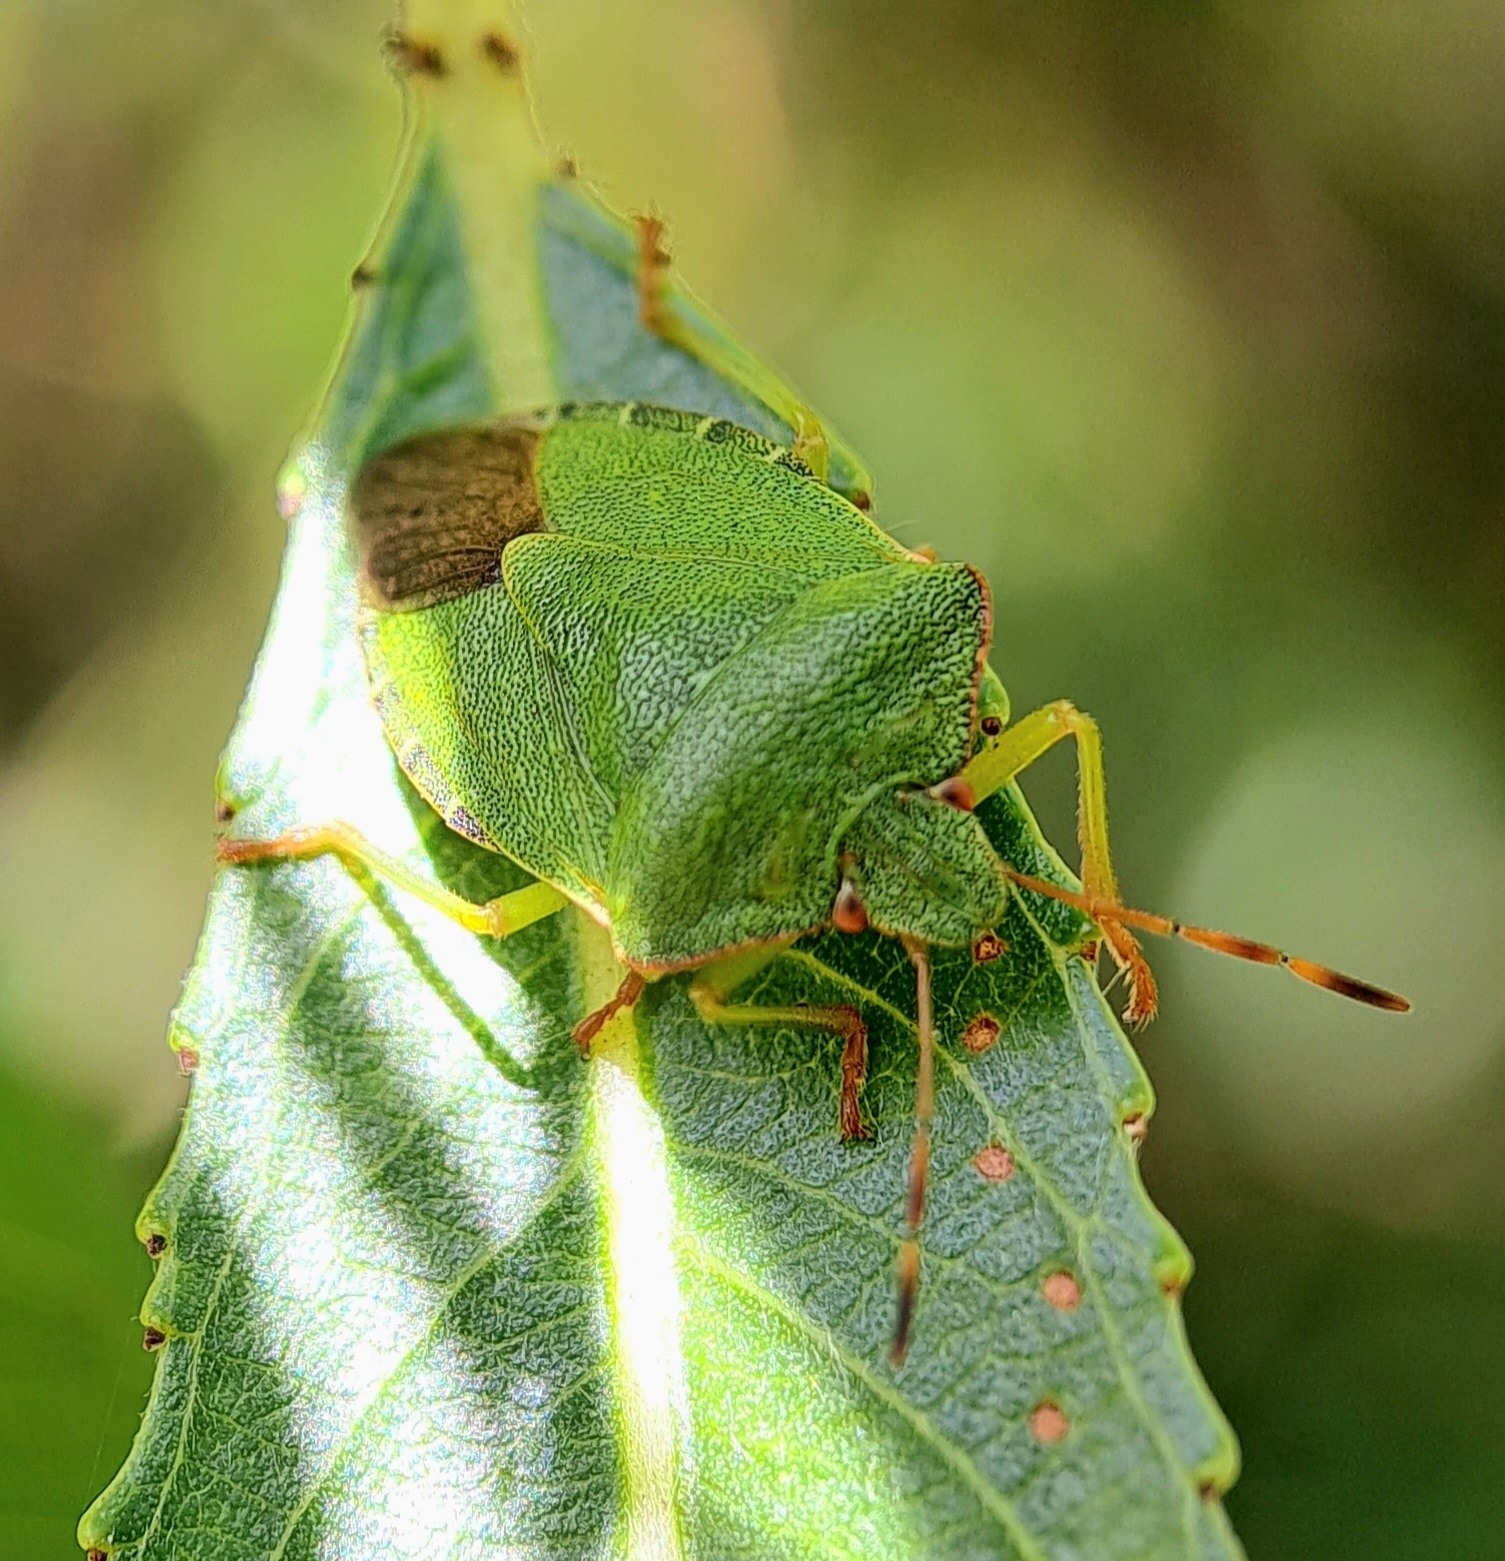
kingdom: Animalia
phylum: Arthropoda
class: Insecta
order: Hemiptera
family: Pentatomidae
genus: Palomena
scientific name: Palomena prasina
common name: Green shieldbug
